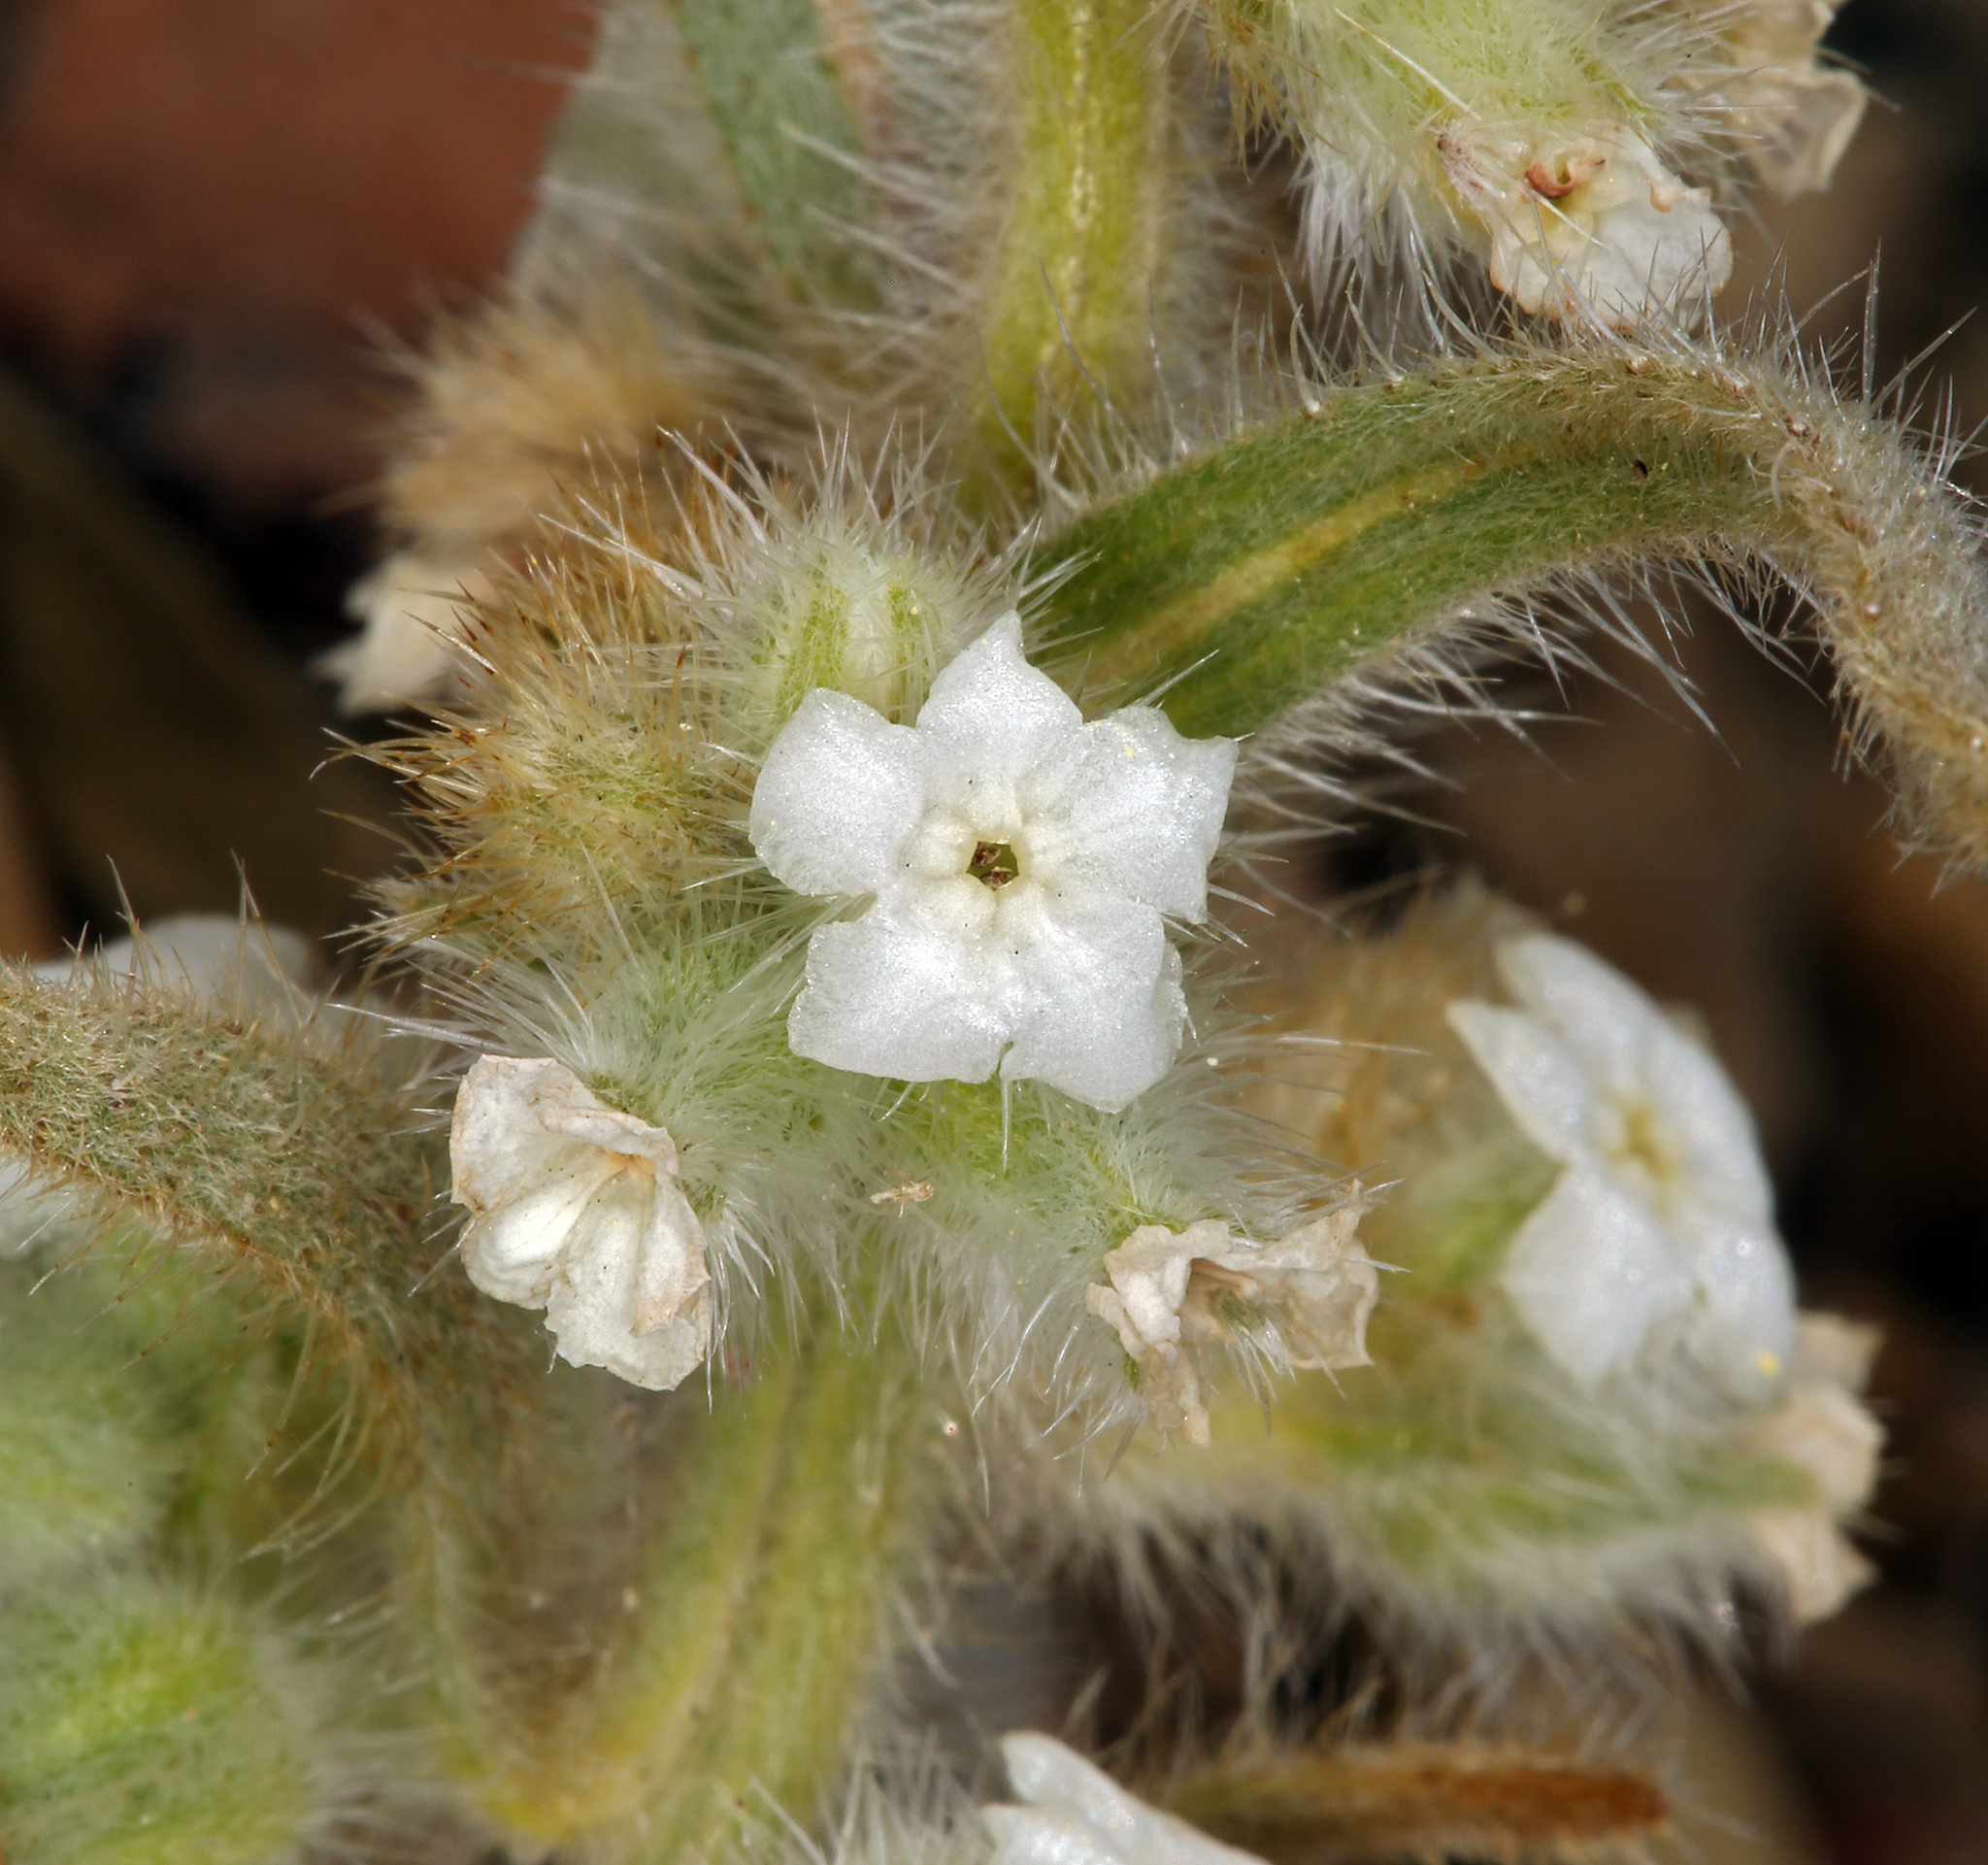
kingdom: Plantae
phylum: Tracheophyta
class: Magnoliopsida
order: Boraginales
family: Boraginaceae
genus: Oreocarya
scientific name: Oreocarya hoffmannii
